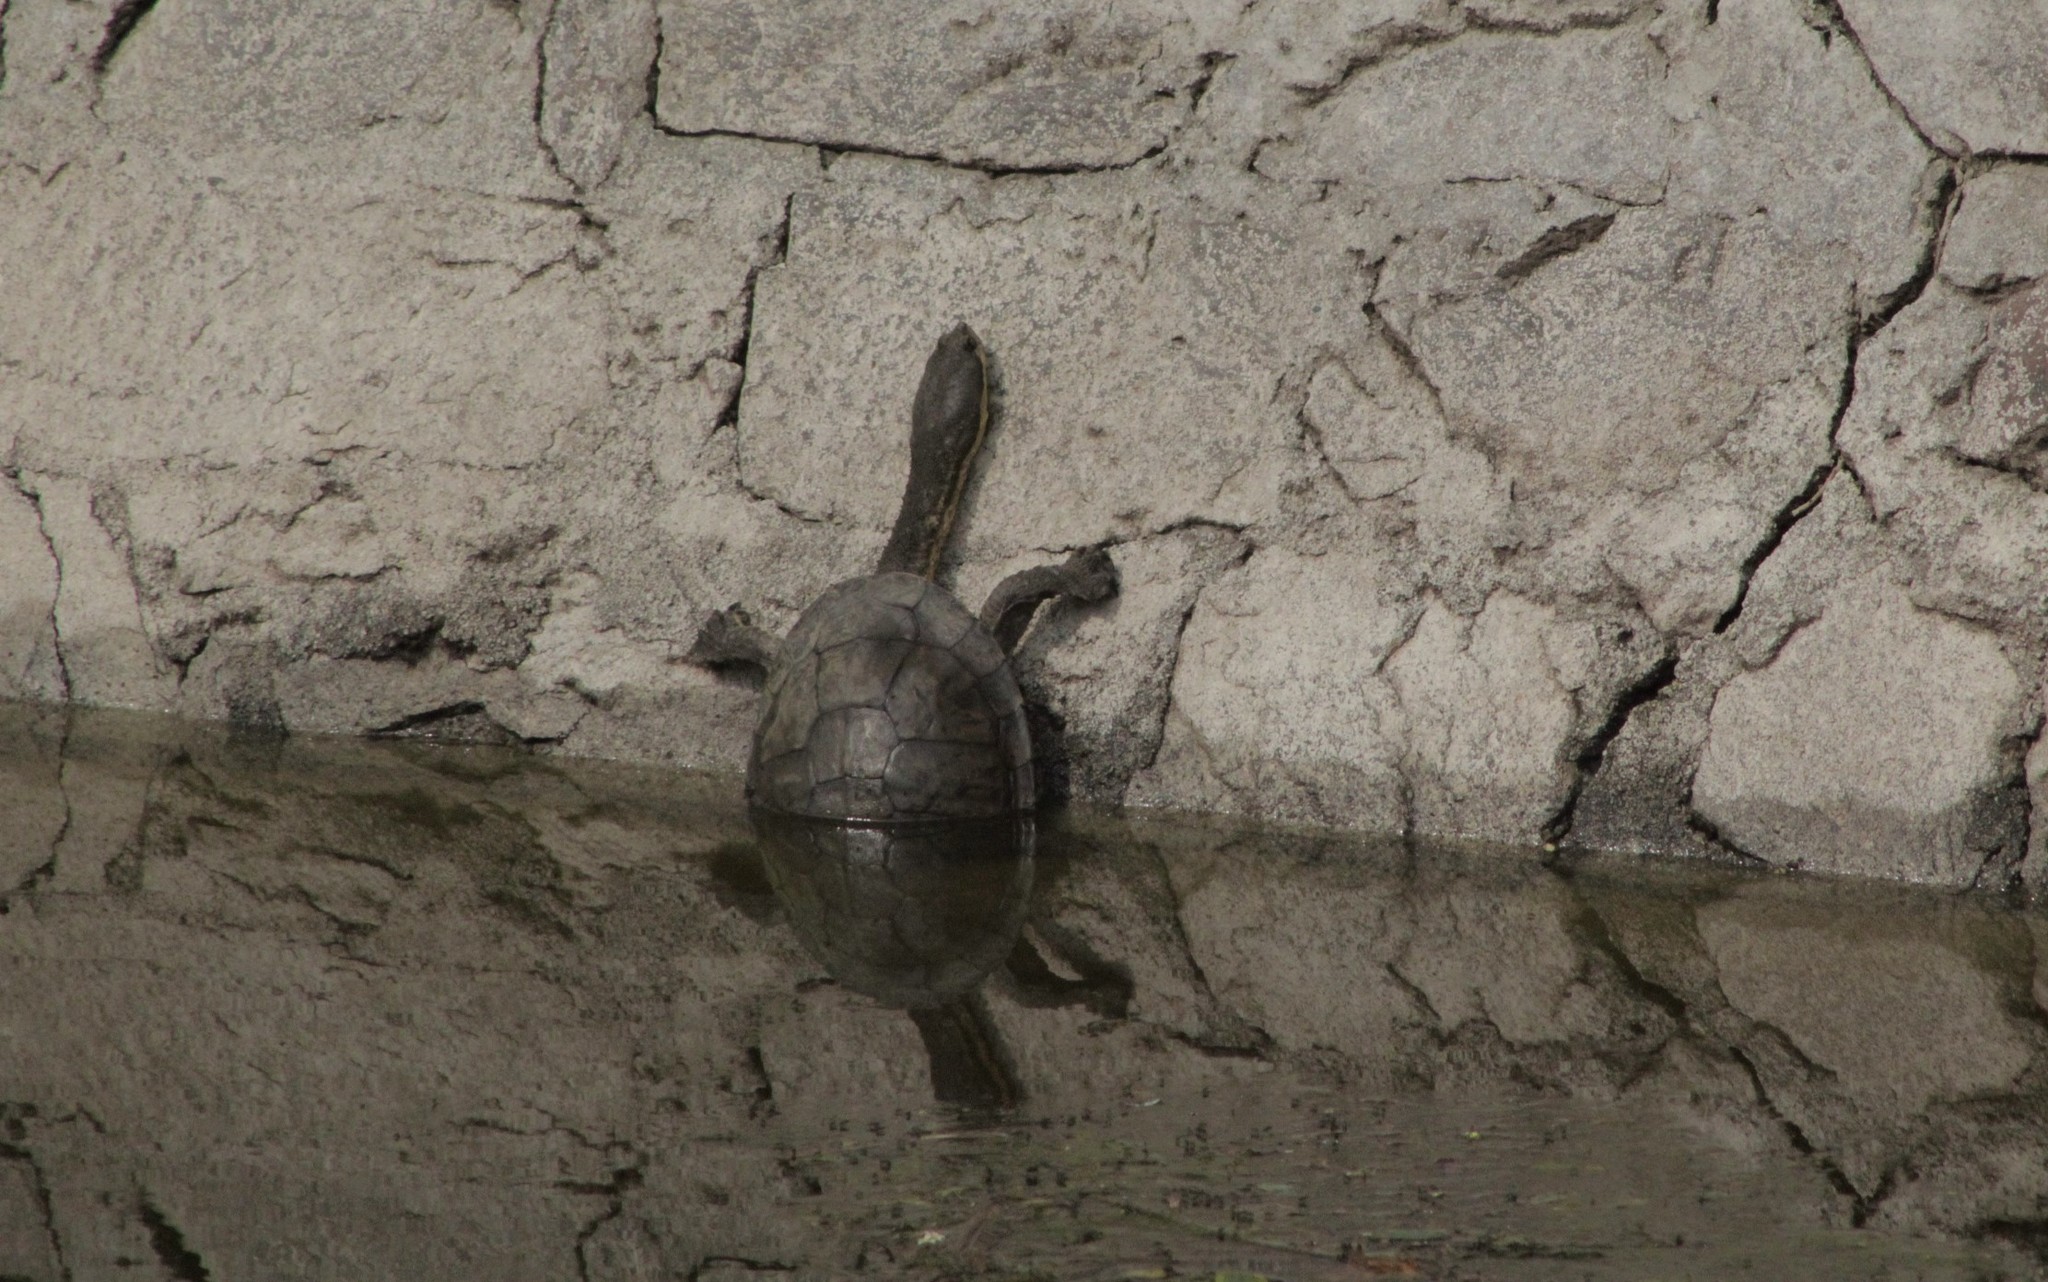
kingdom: Animalia
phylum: Chordata
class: Testudines
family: Chelidae
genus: Hydromedusa
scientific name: Hydromedusa tectifera
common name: Argentine snake-necked turtle
